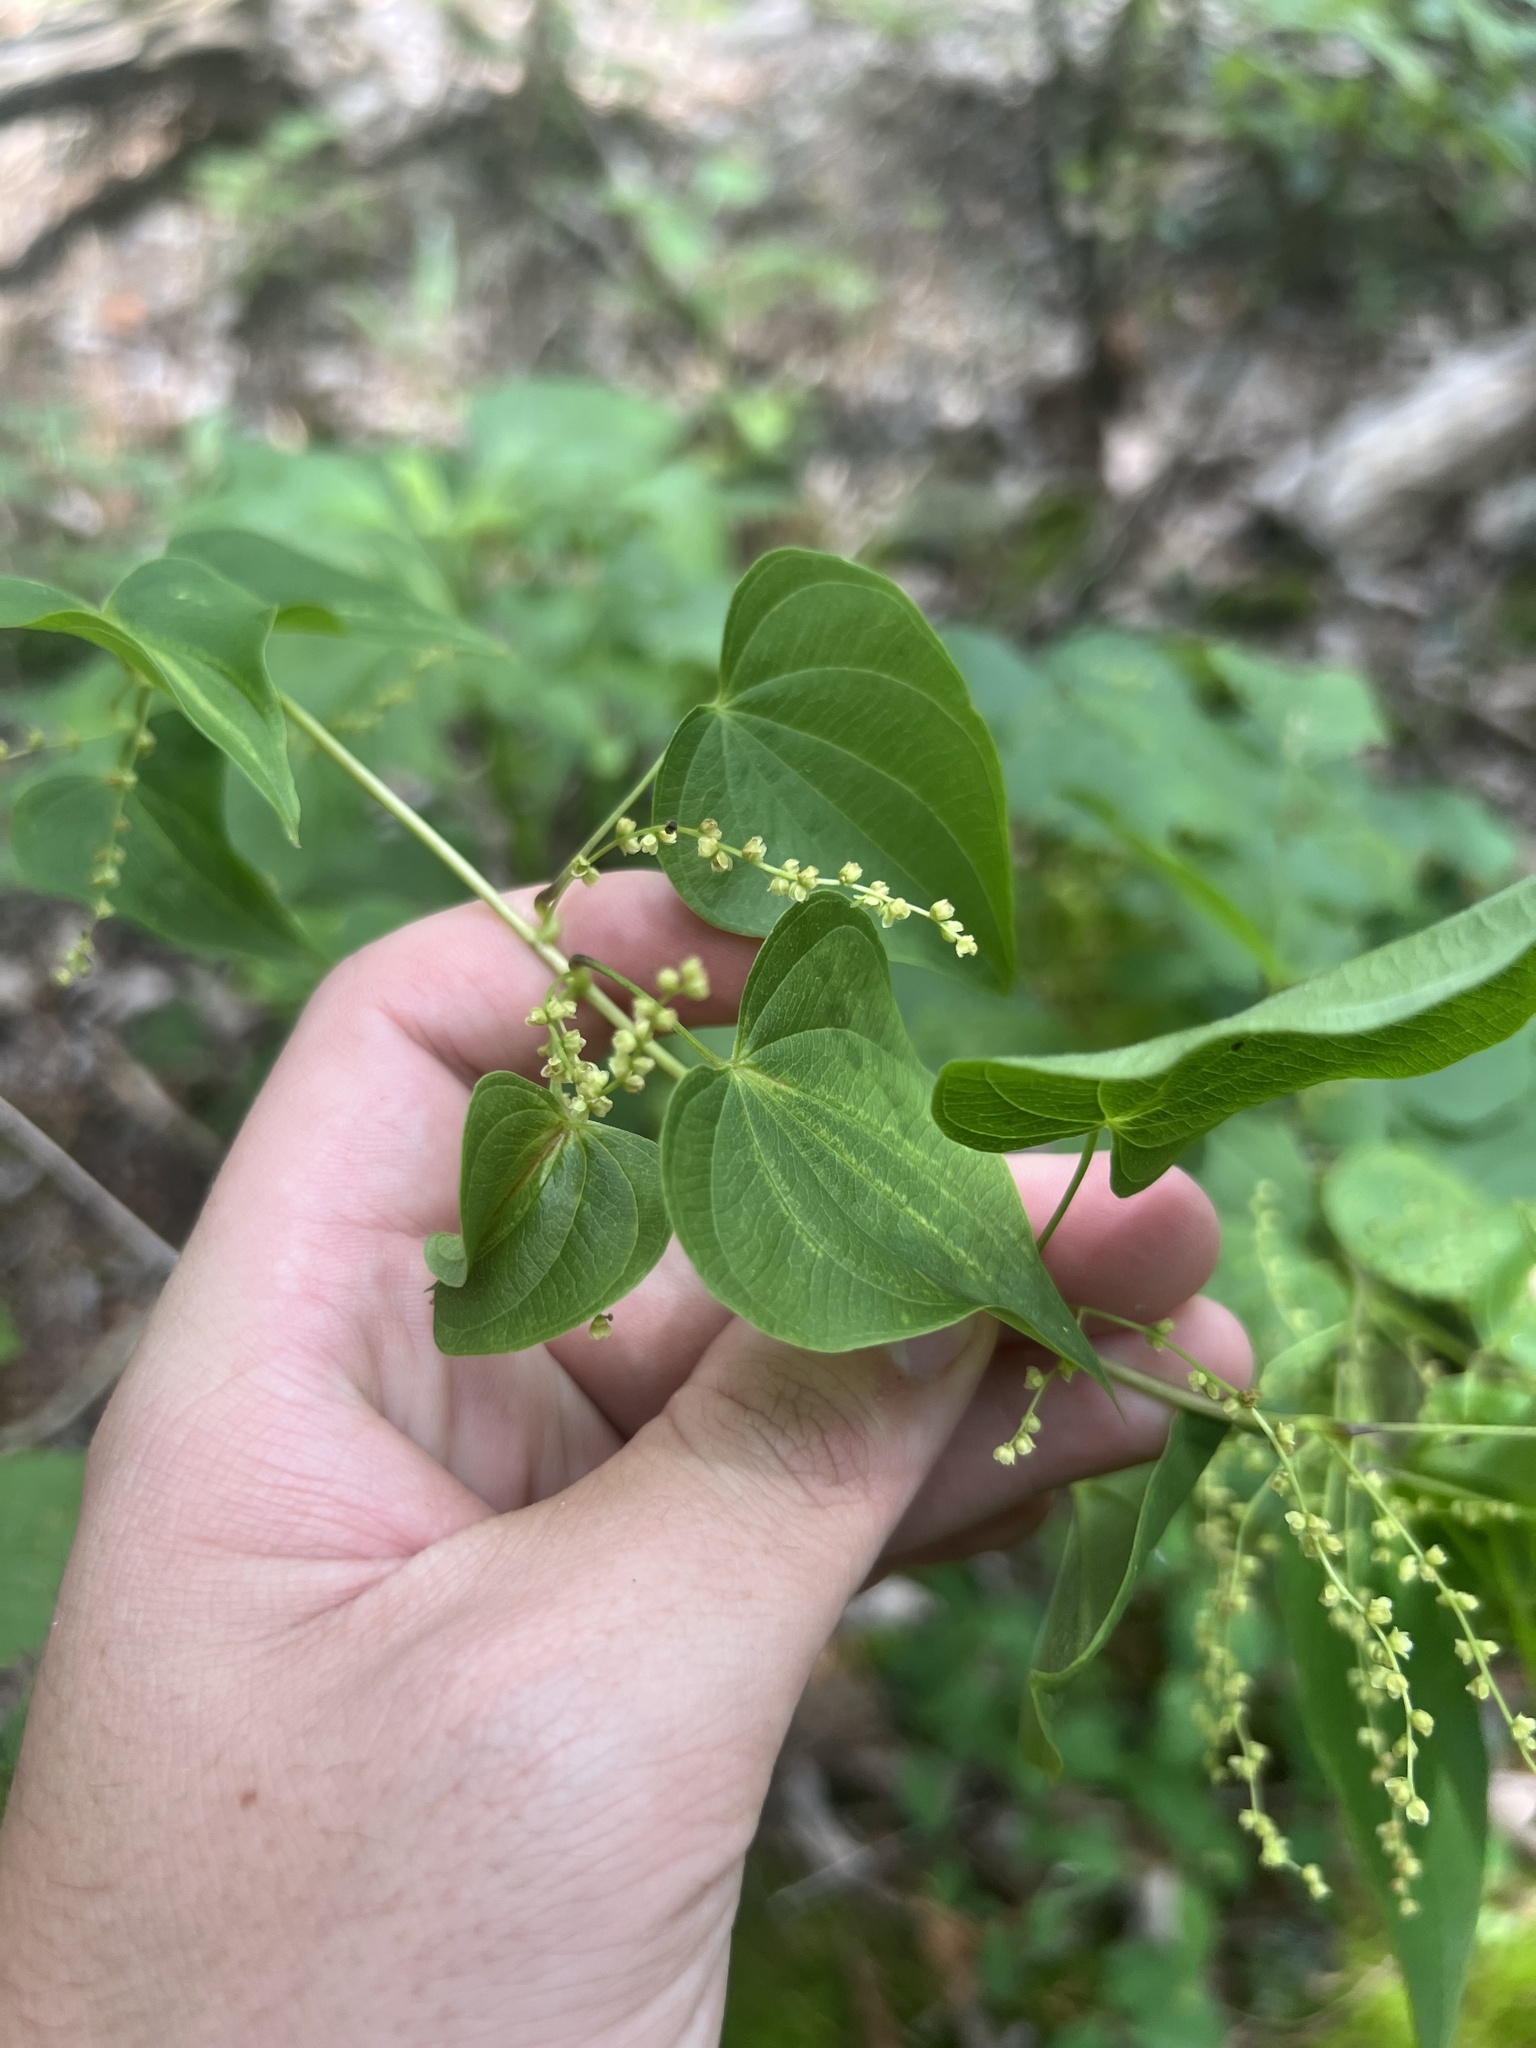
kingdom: Plantae
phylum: Tracheophyta
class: Liliopsida
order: Dioscoreales
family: Dioscoreaceae
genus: Dioscorea
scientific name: Dioscorea villosa
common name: Wild yam
